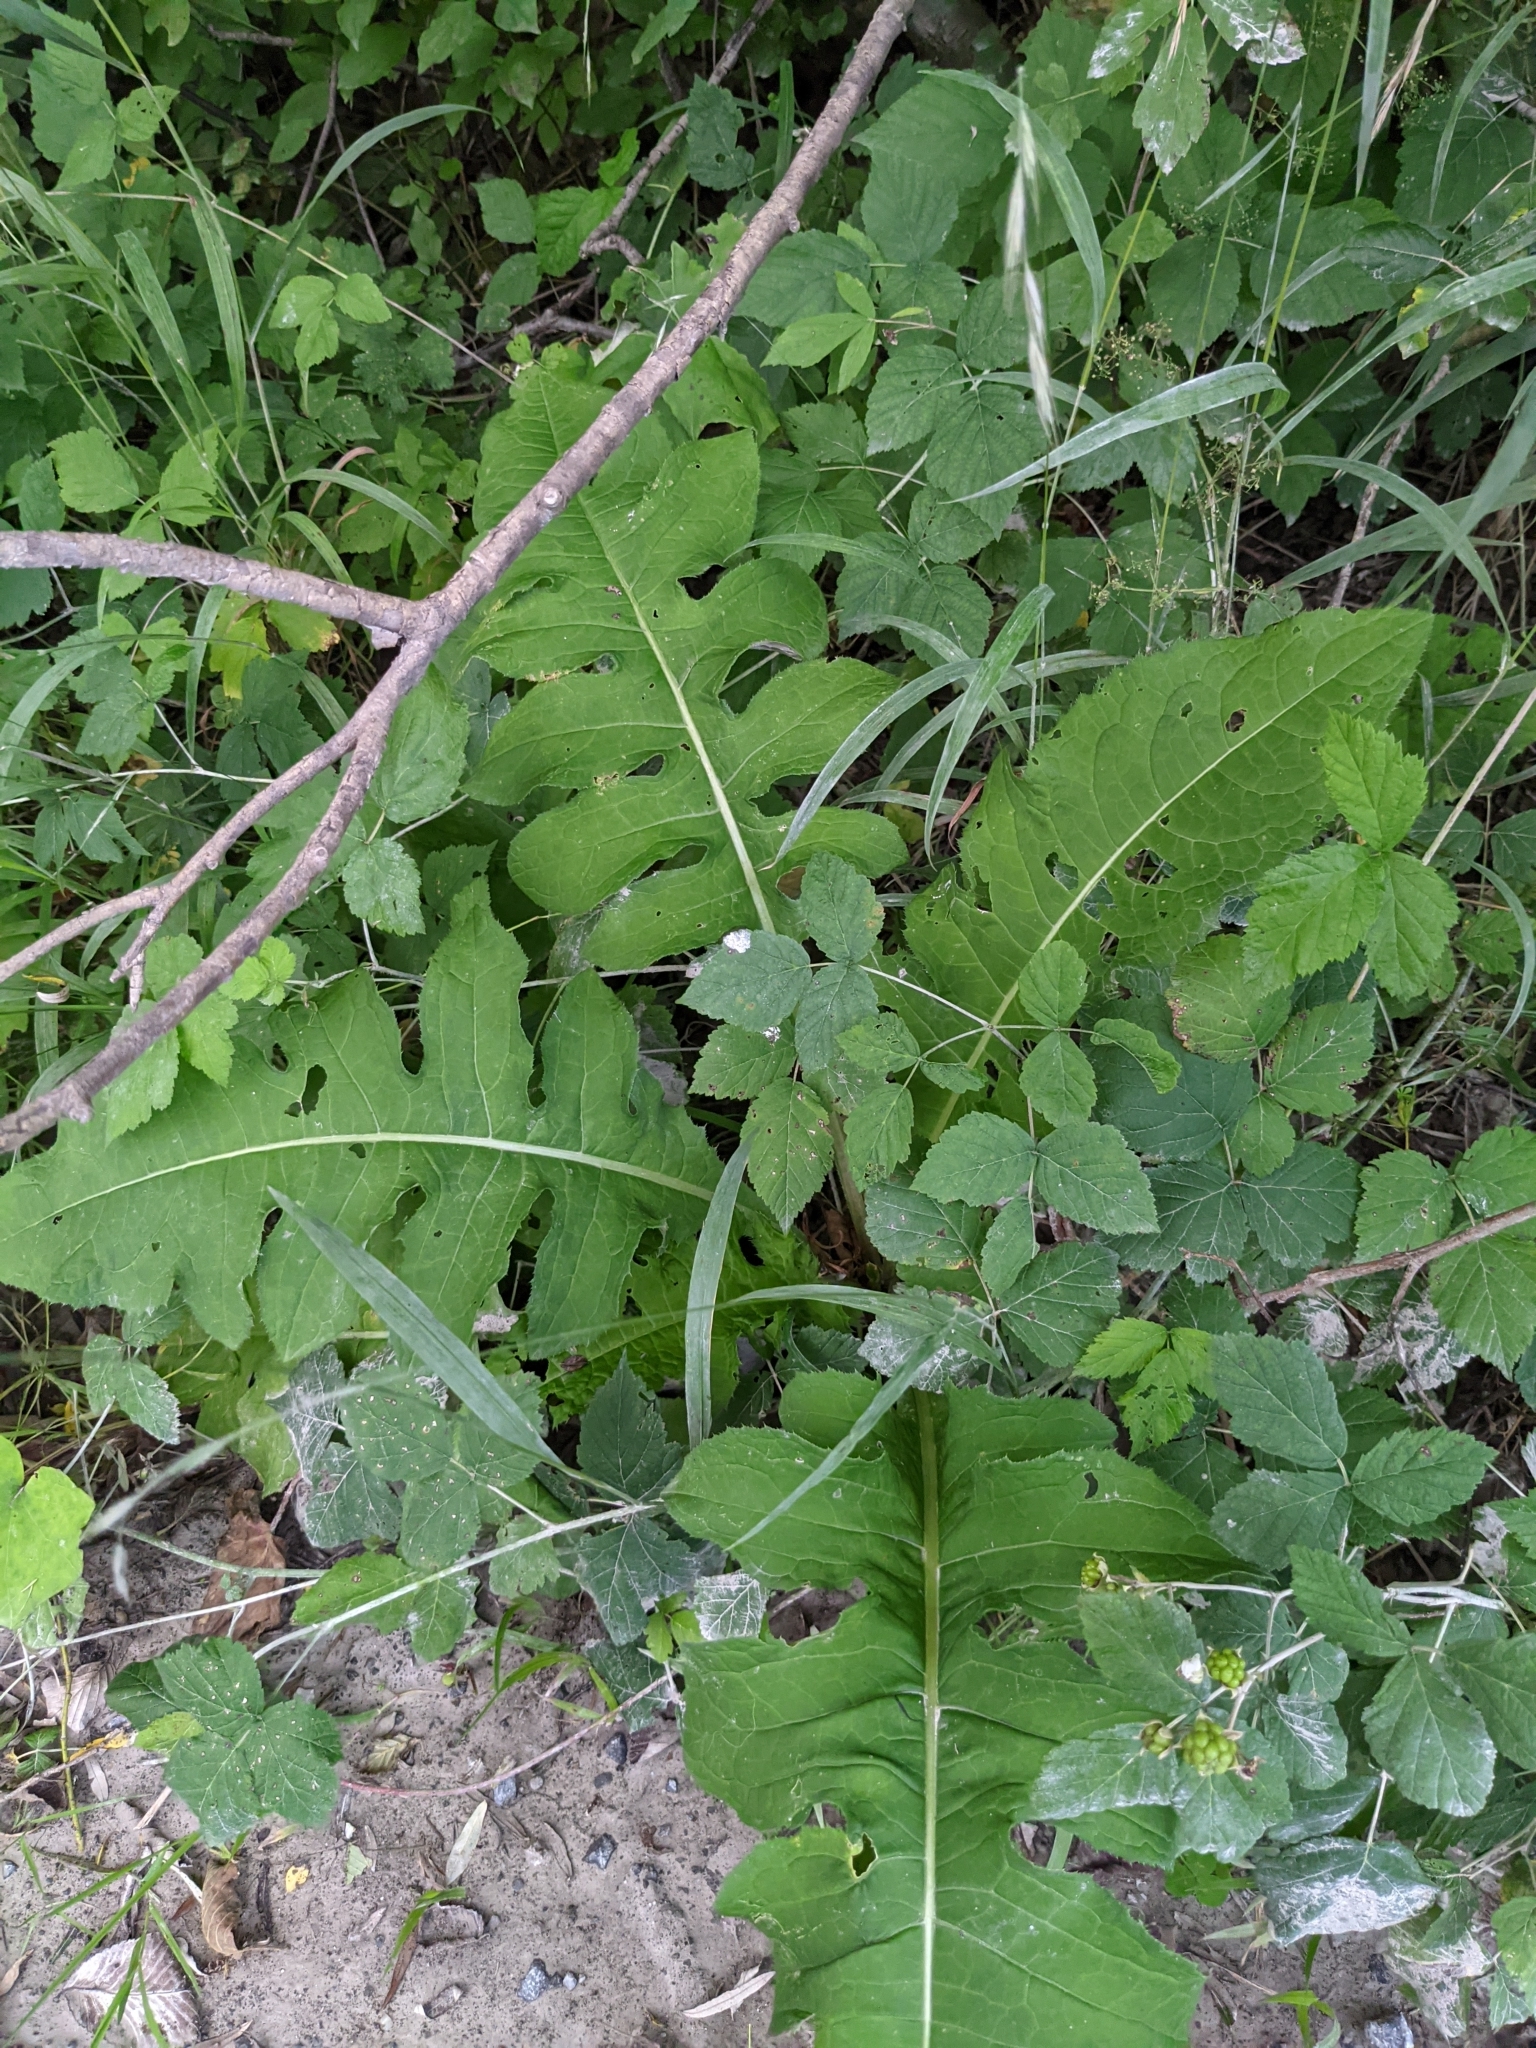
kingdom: Plantae
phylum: Tracheophyta
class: Magnoliopsida
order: Asterales
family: Asteraceae
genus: Cirsium
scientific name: Cirsium erisithales
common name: Yellow thistle
